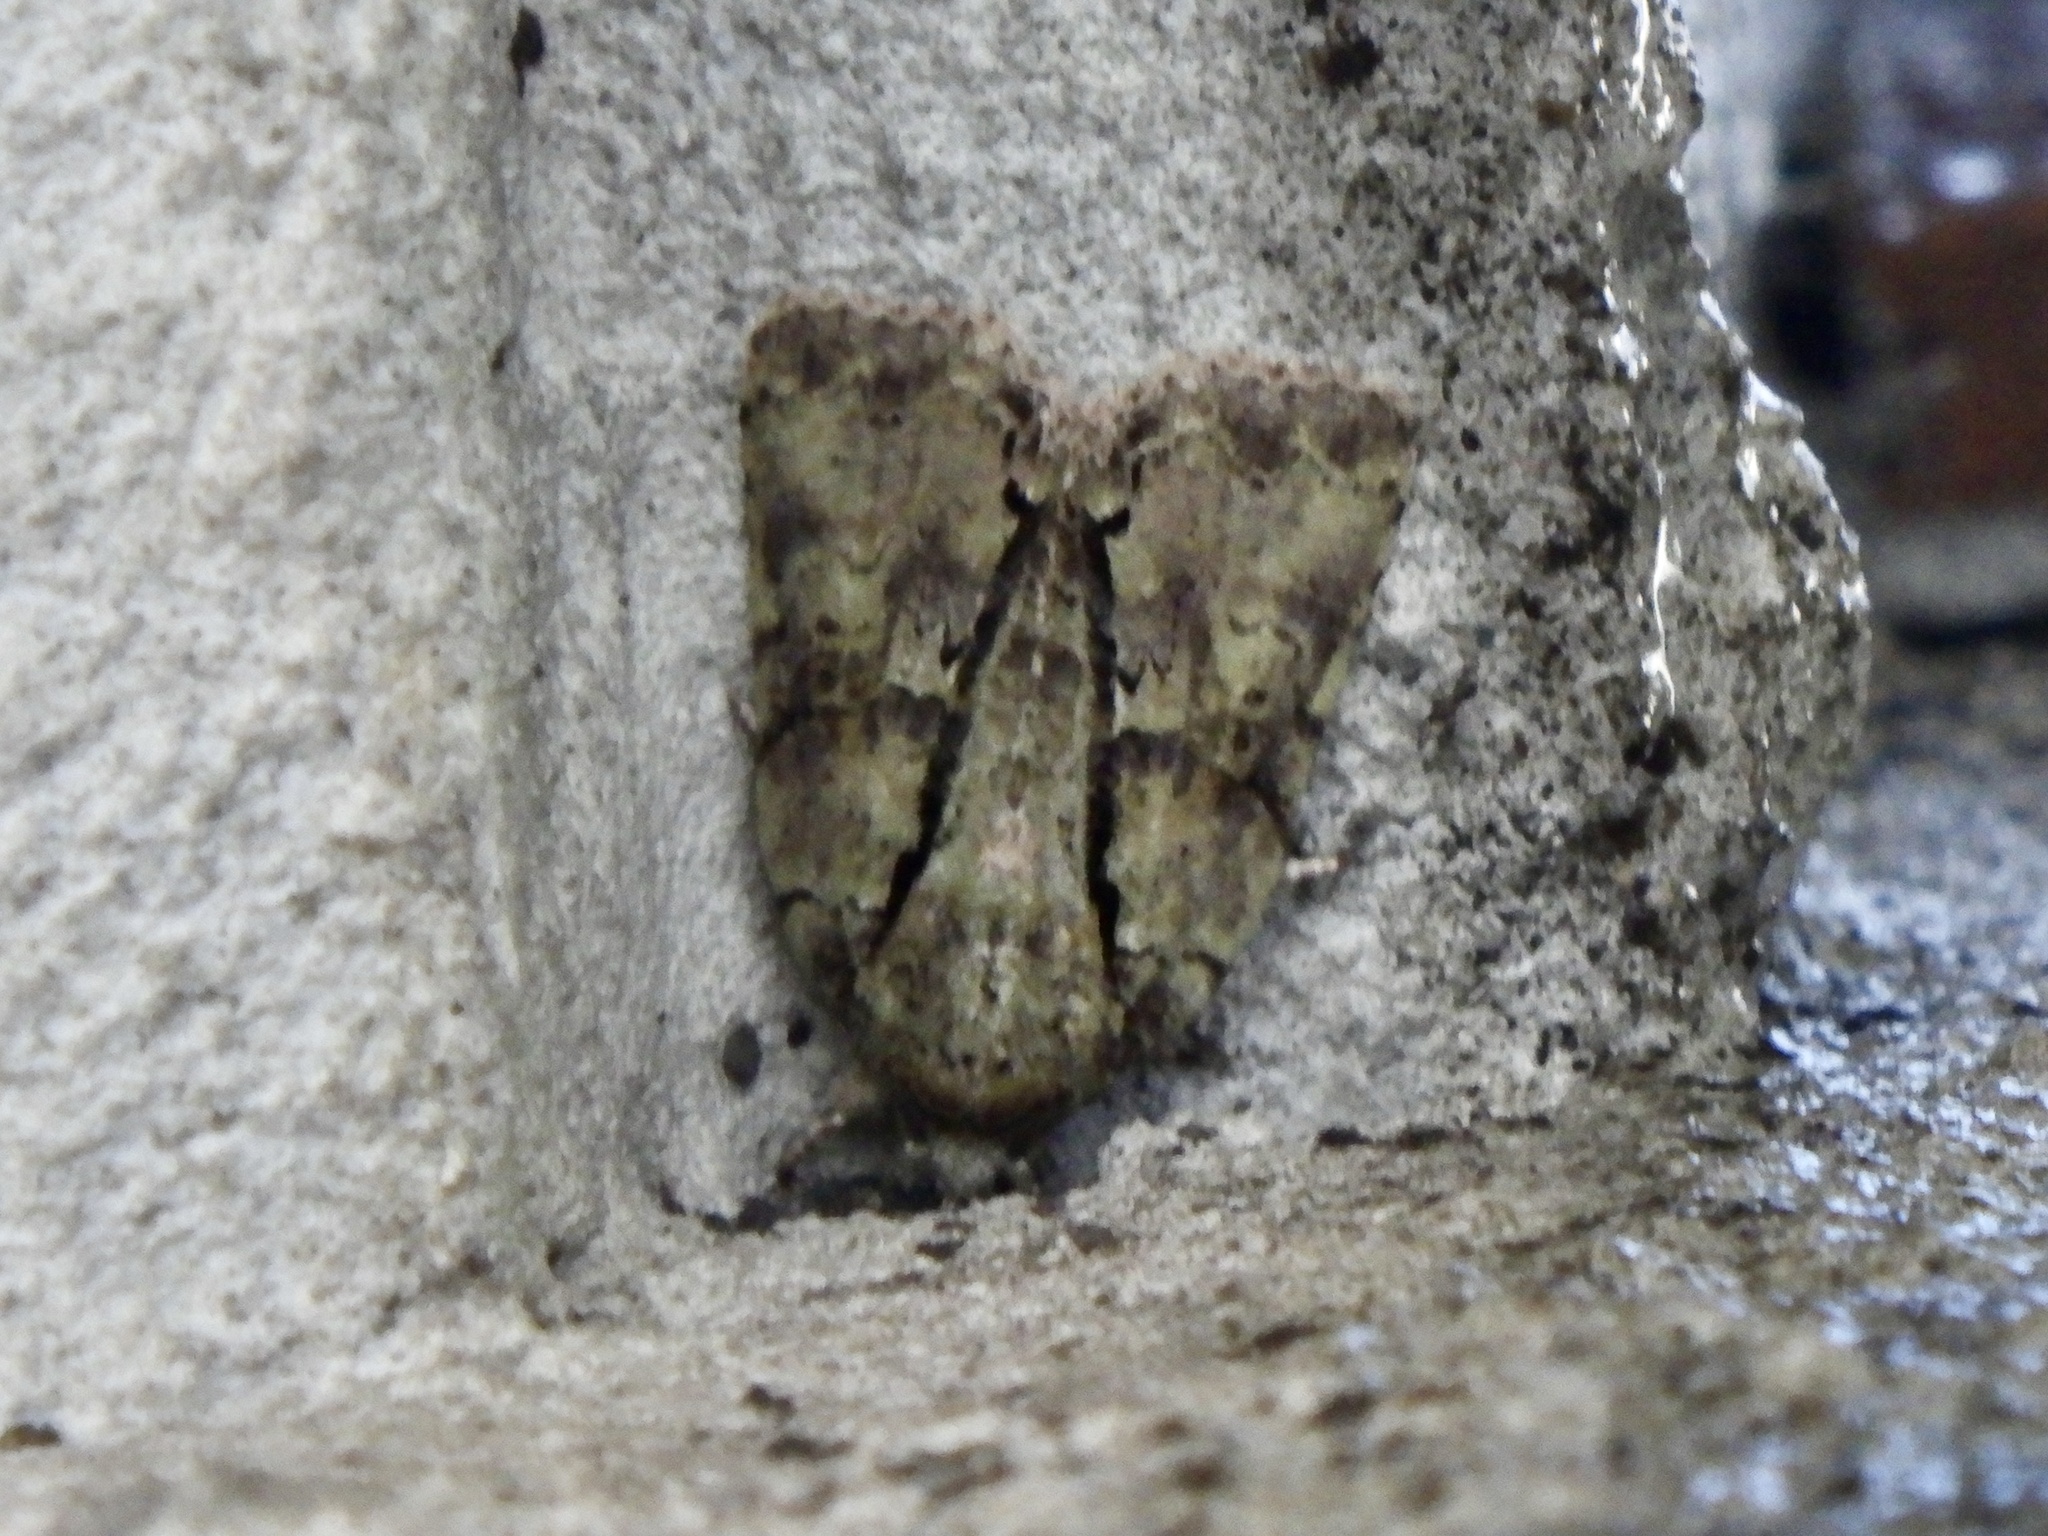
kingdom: Animalia
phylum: Arthropoda
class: Insecta
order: Lepidoptera
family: Nolidae
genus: Blenina
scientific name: Blenina senex
